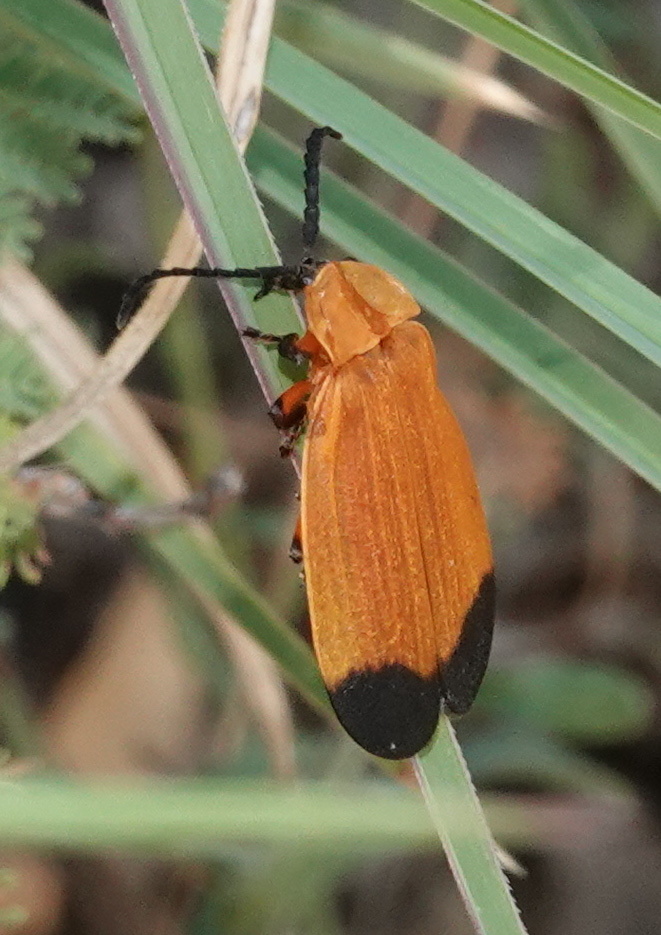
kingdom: Animalia
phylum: Arthropoda
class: Insecta
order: Coleoptera
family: Lycidae
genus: Lycus
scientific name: Lycus arizonensis
